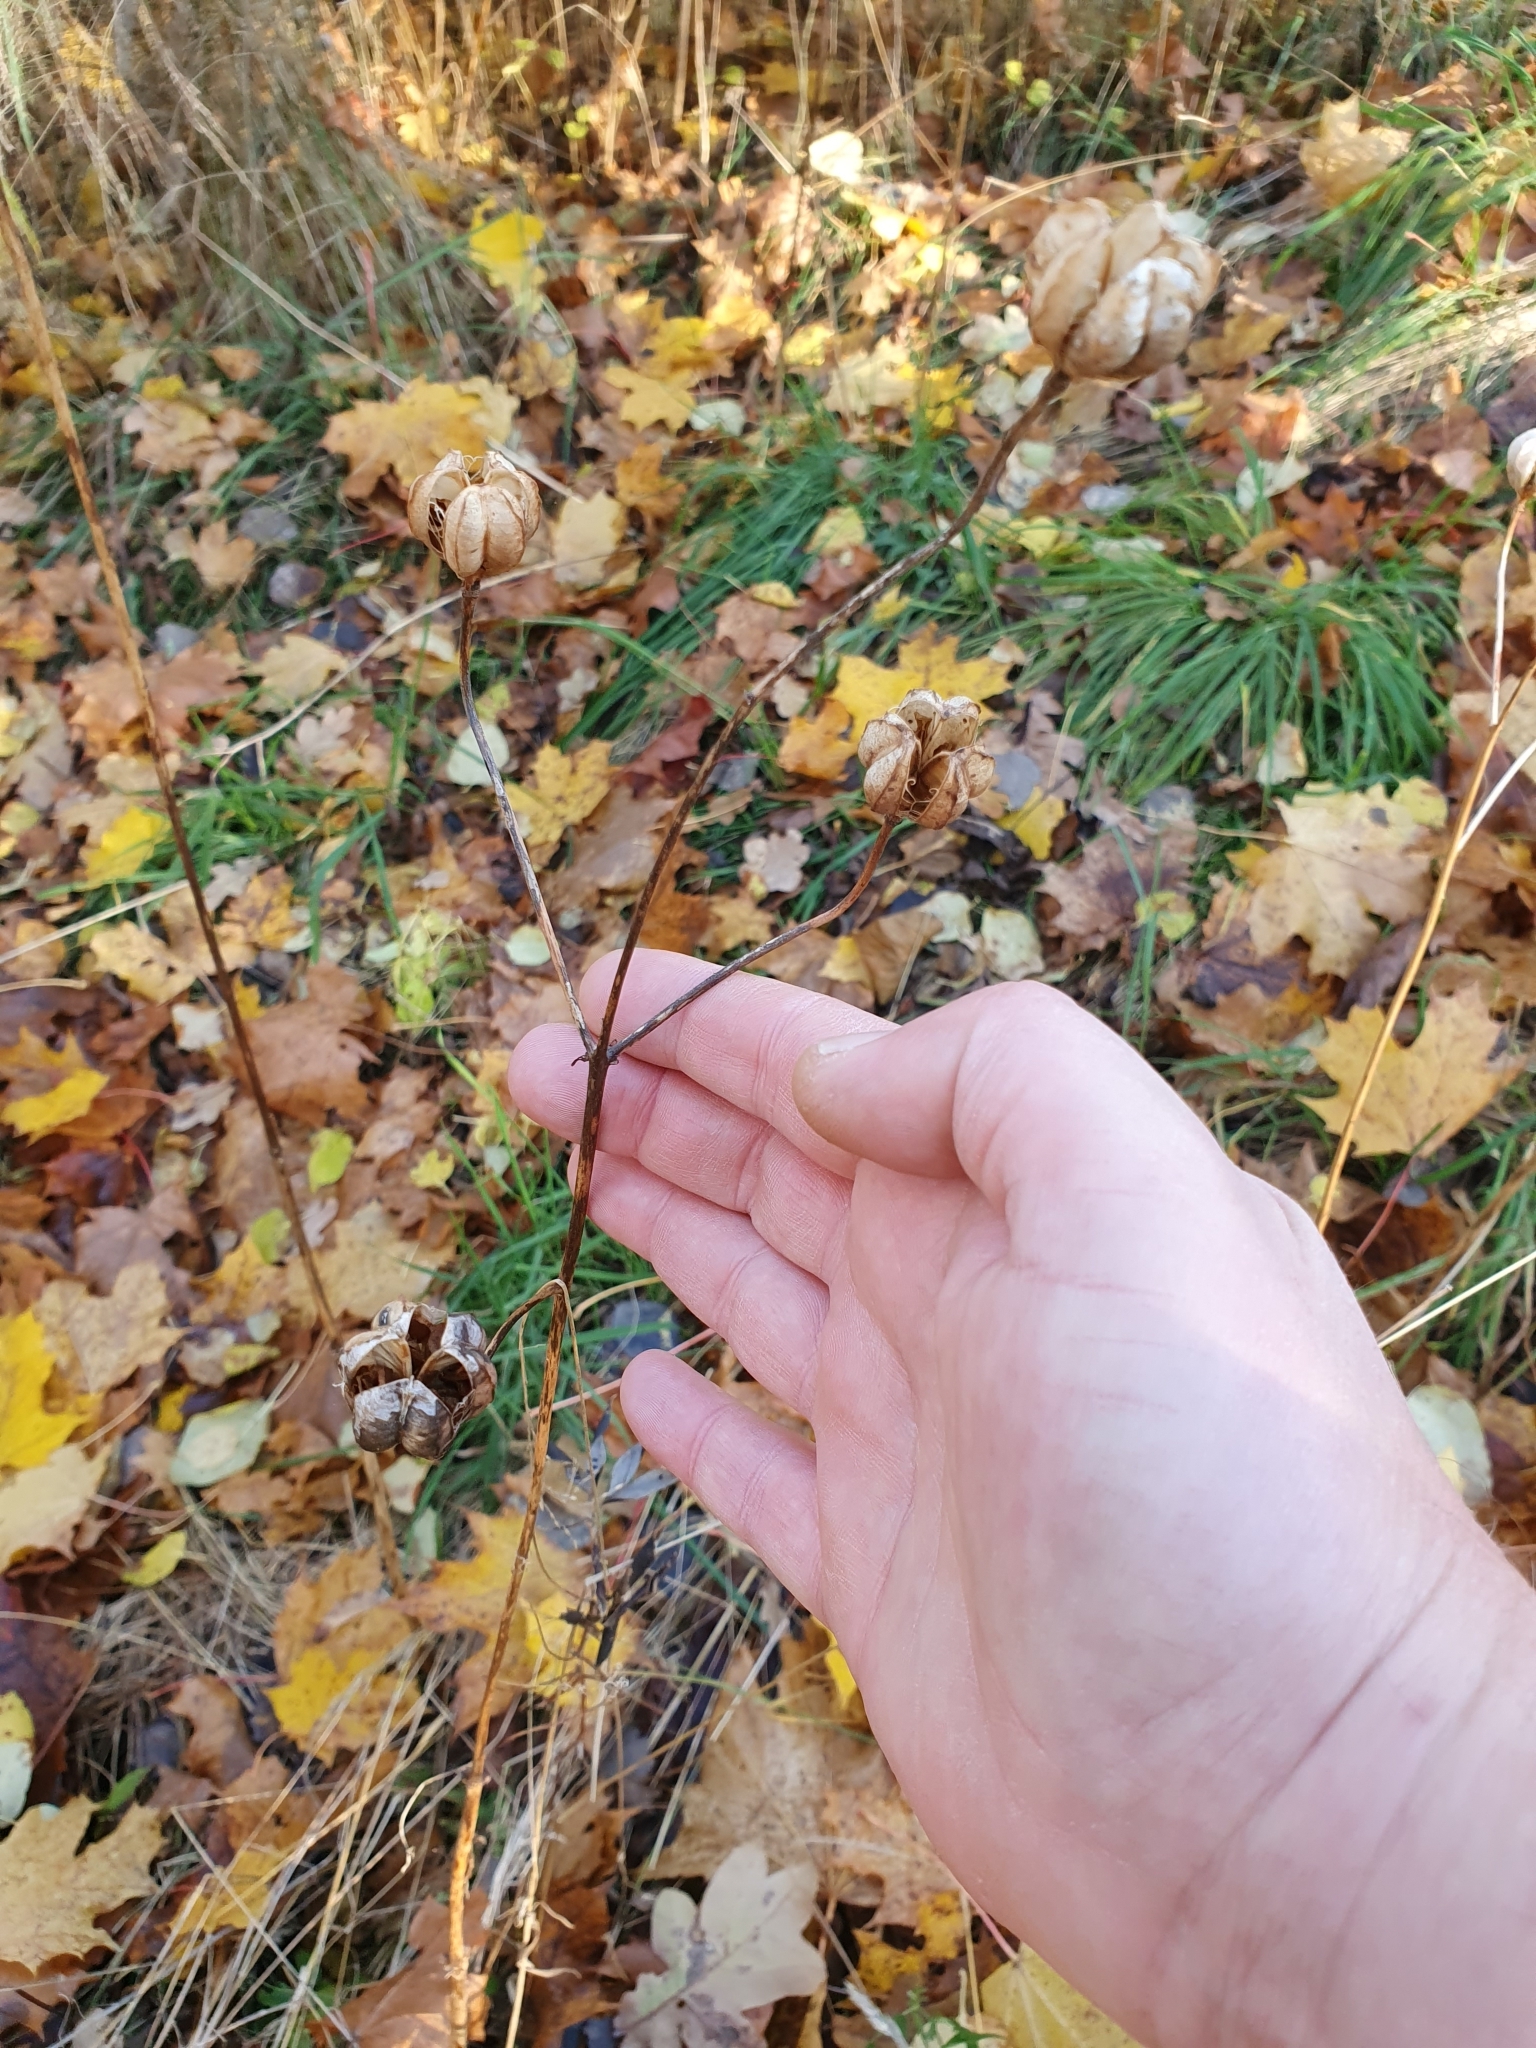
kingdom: Plantae
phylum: Tracheophyta
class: Liliopsida
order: Liliales
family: Liliaceae
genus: Lilium
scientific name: Lilium martagon
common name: Martagon lily
